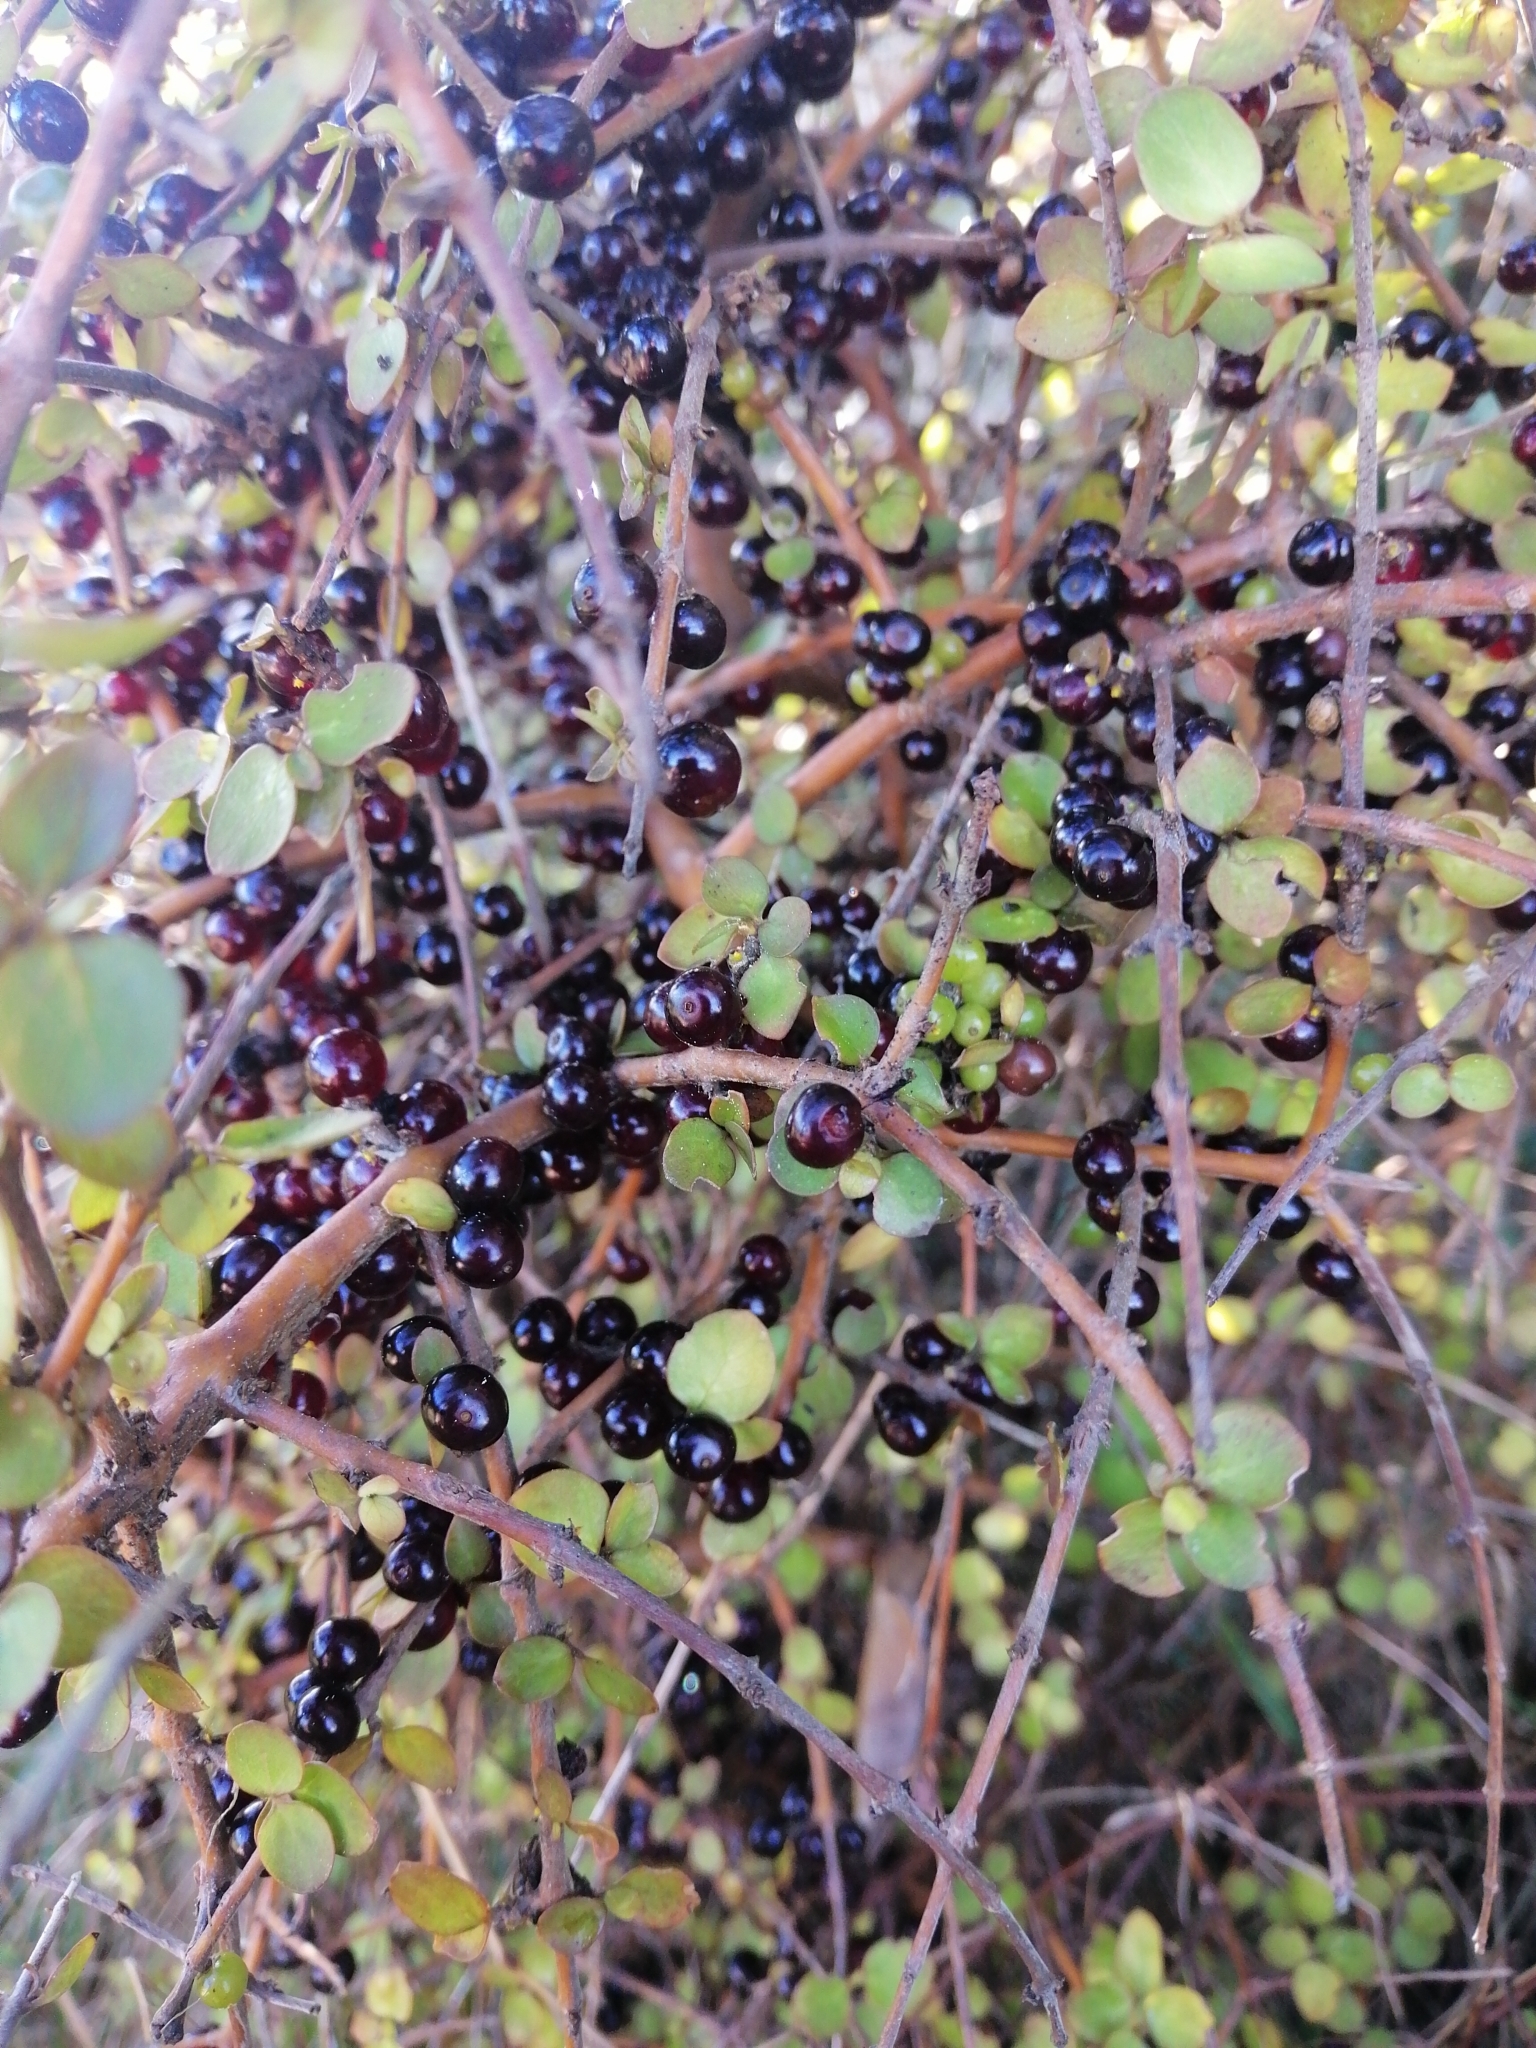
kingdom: Plantae
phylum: Tracheophyta
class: Magnoliopsida
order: Gentianales
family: Rubiaceae
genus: Coprosma
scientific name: Coprosma rhamnoides
